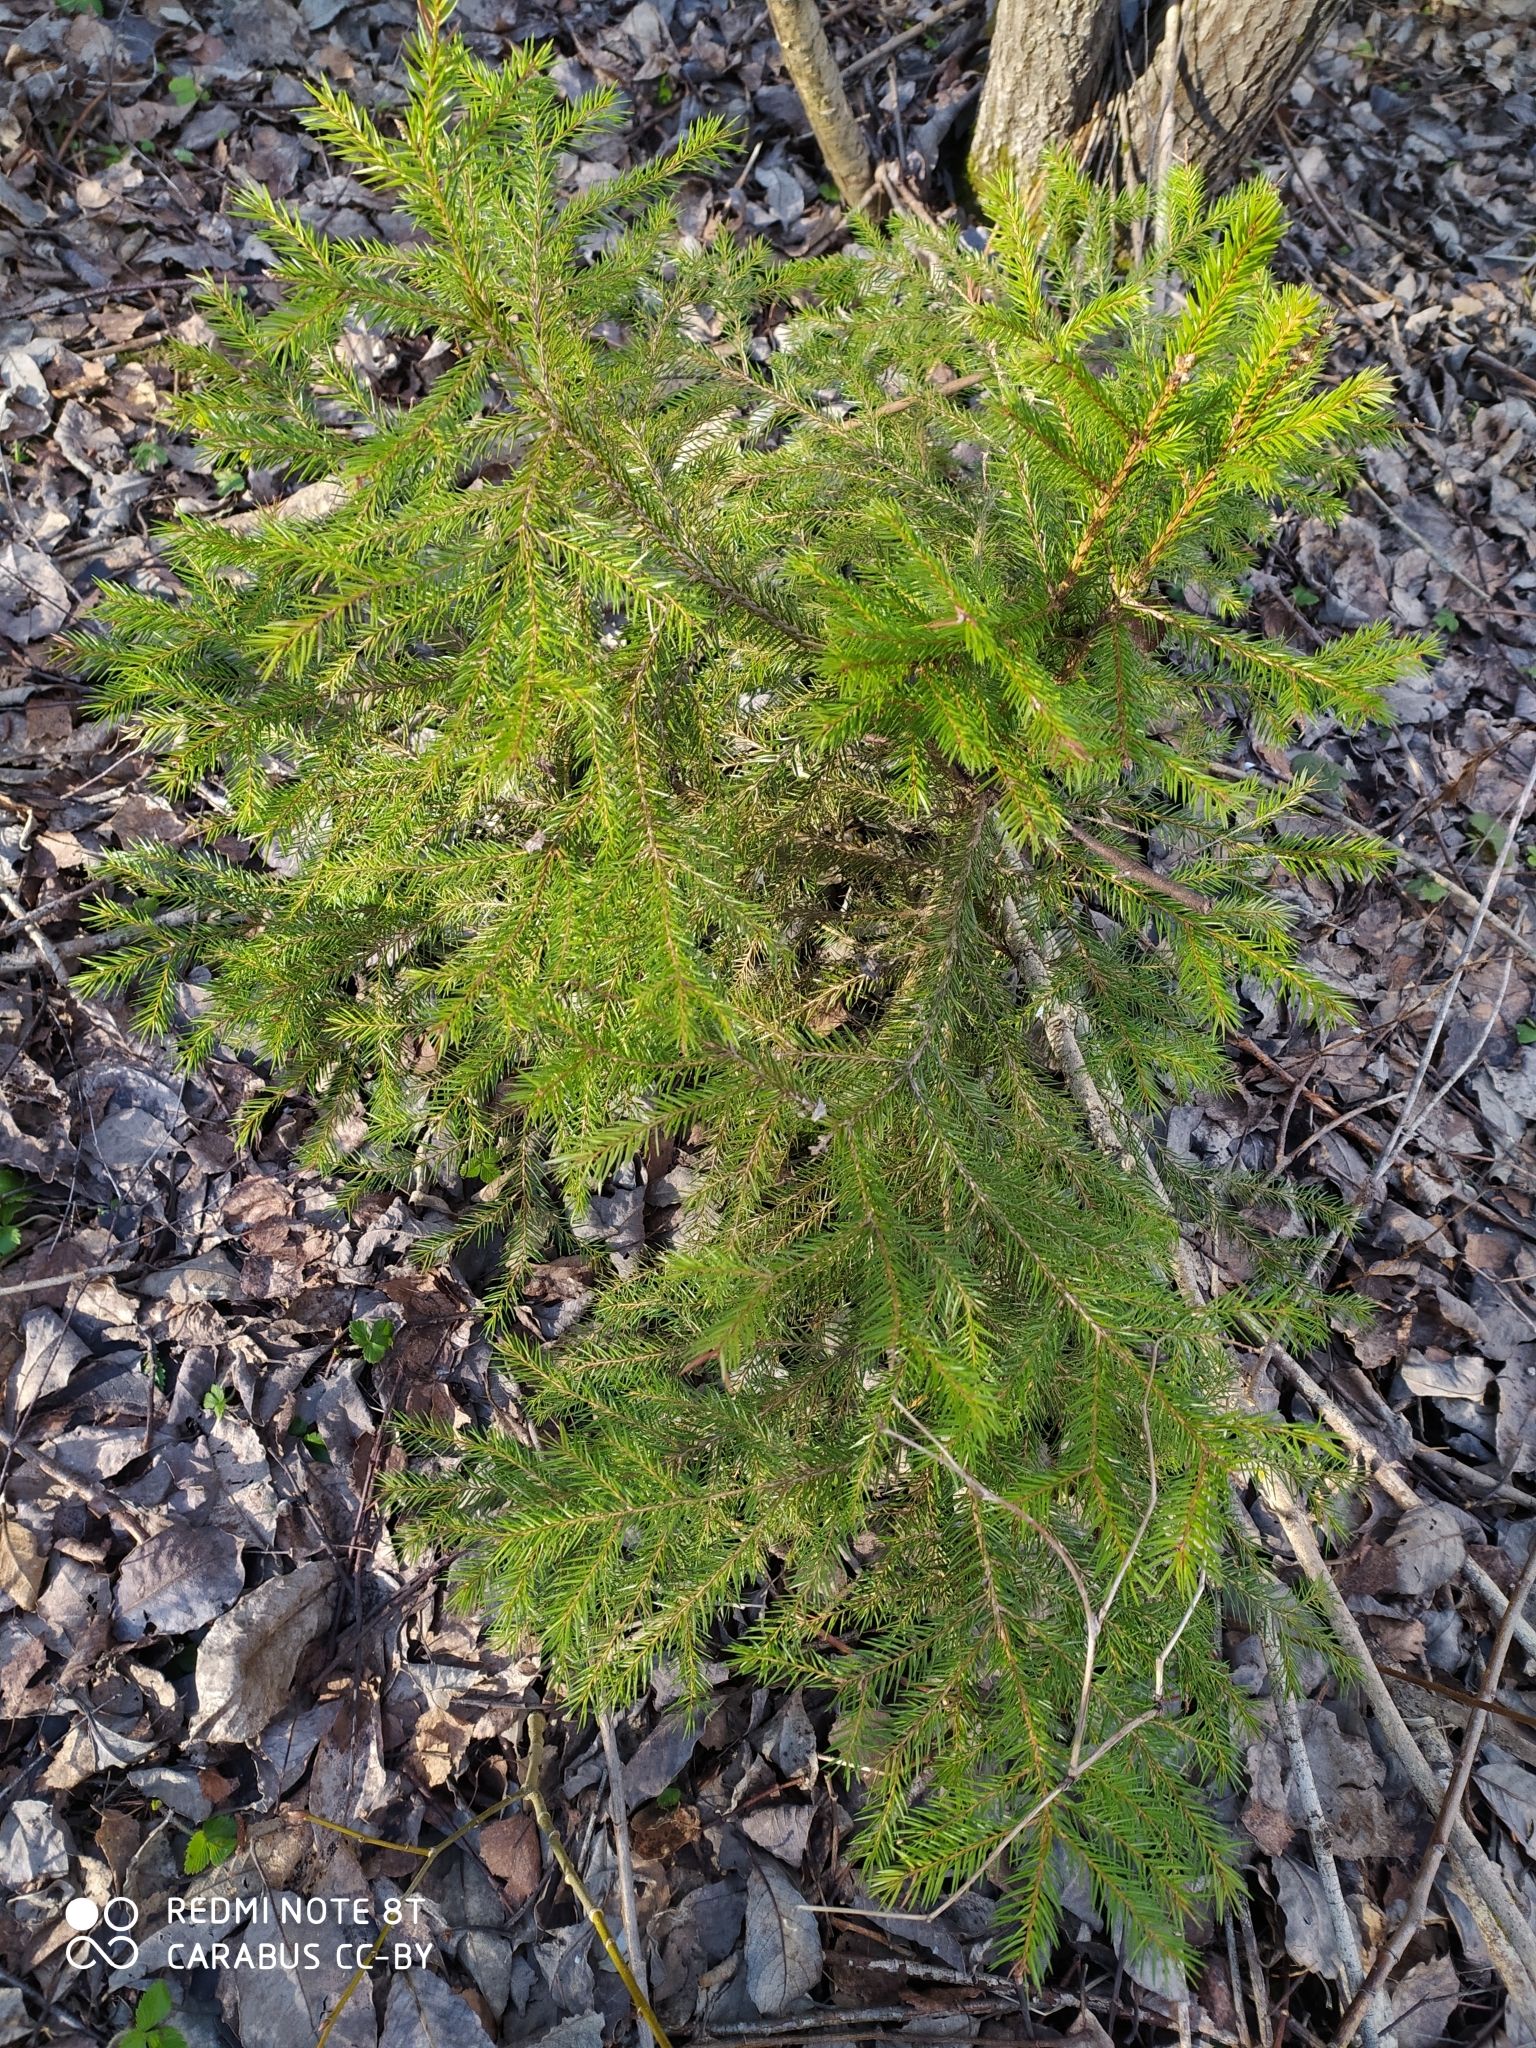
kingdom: Plantae
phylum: Tracheophyta
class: Pinopsida
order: Pinales
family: Pinaceae
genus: Picea
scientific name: Picea abies
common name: Norway spruce
